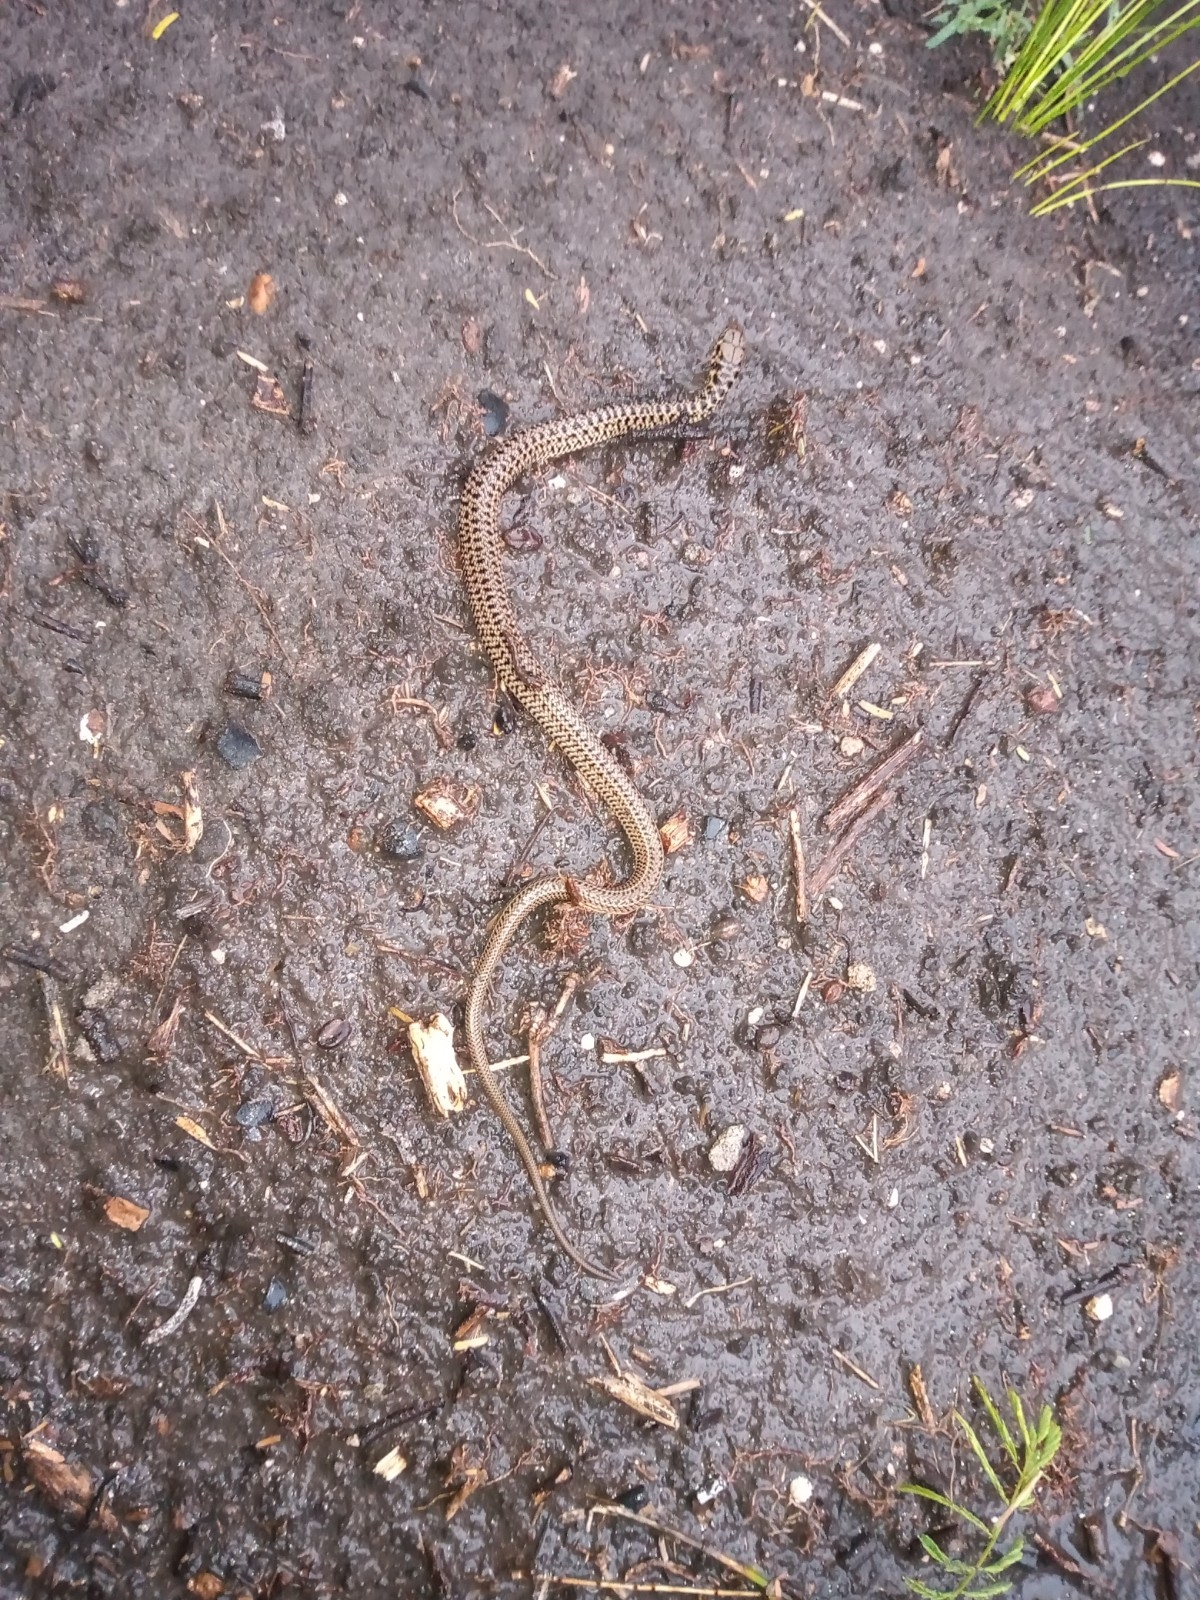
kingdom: Animalia
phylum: Chordata
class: Squamata
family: Colubridae
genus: Philodryas
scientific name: Philodryas patagoniensis
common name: Patagonia green racer
